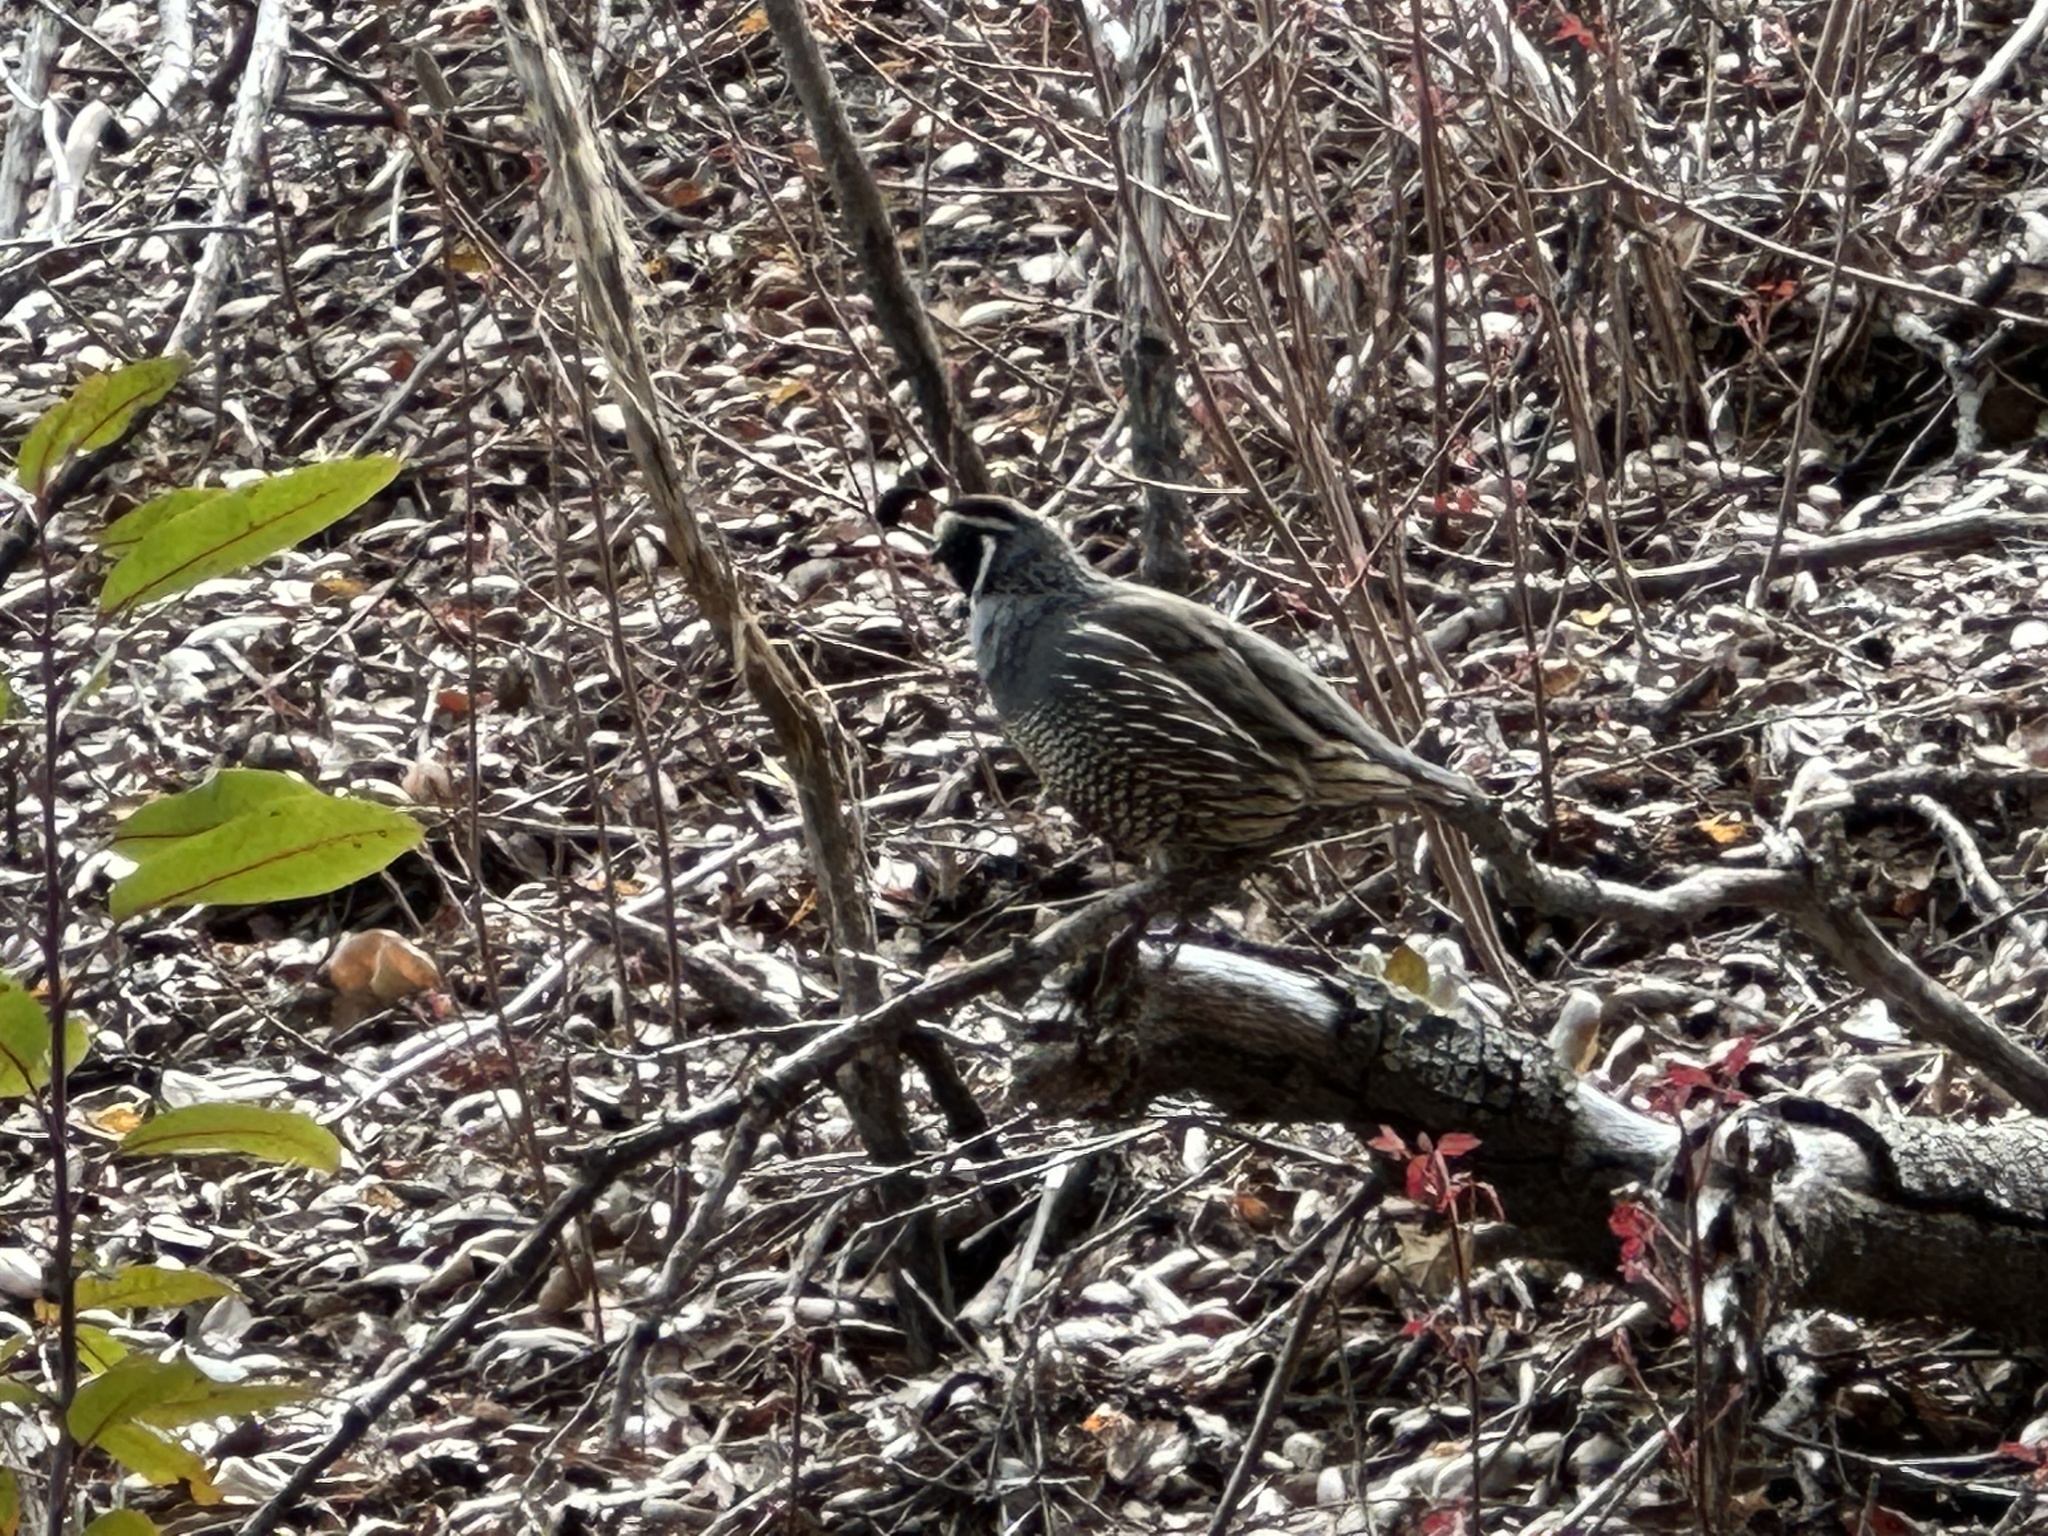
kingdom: Animalia
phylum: Chordata
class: Aves
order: Galliformes
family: Odontophoridae
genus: Callipepla
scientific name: Callipepla californica
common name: California quail
